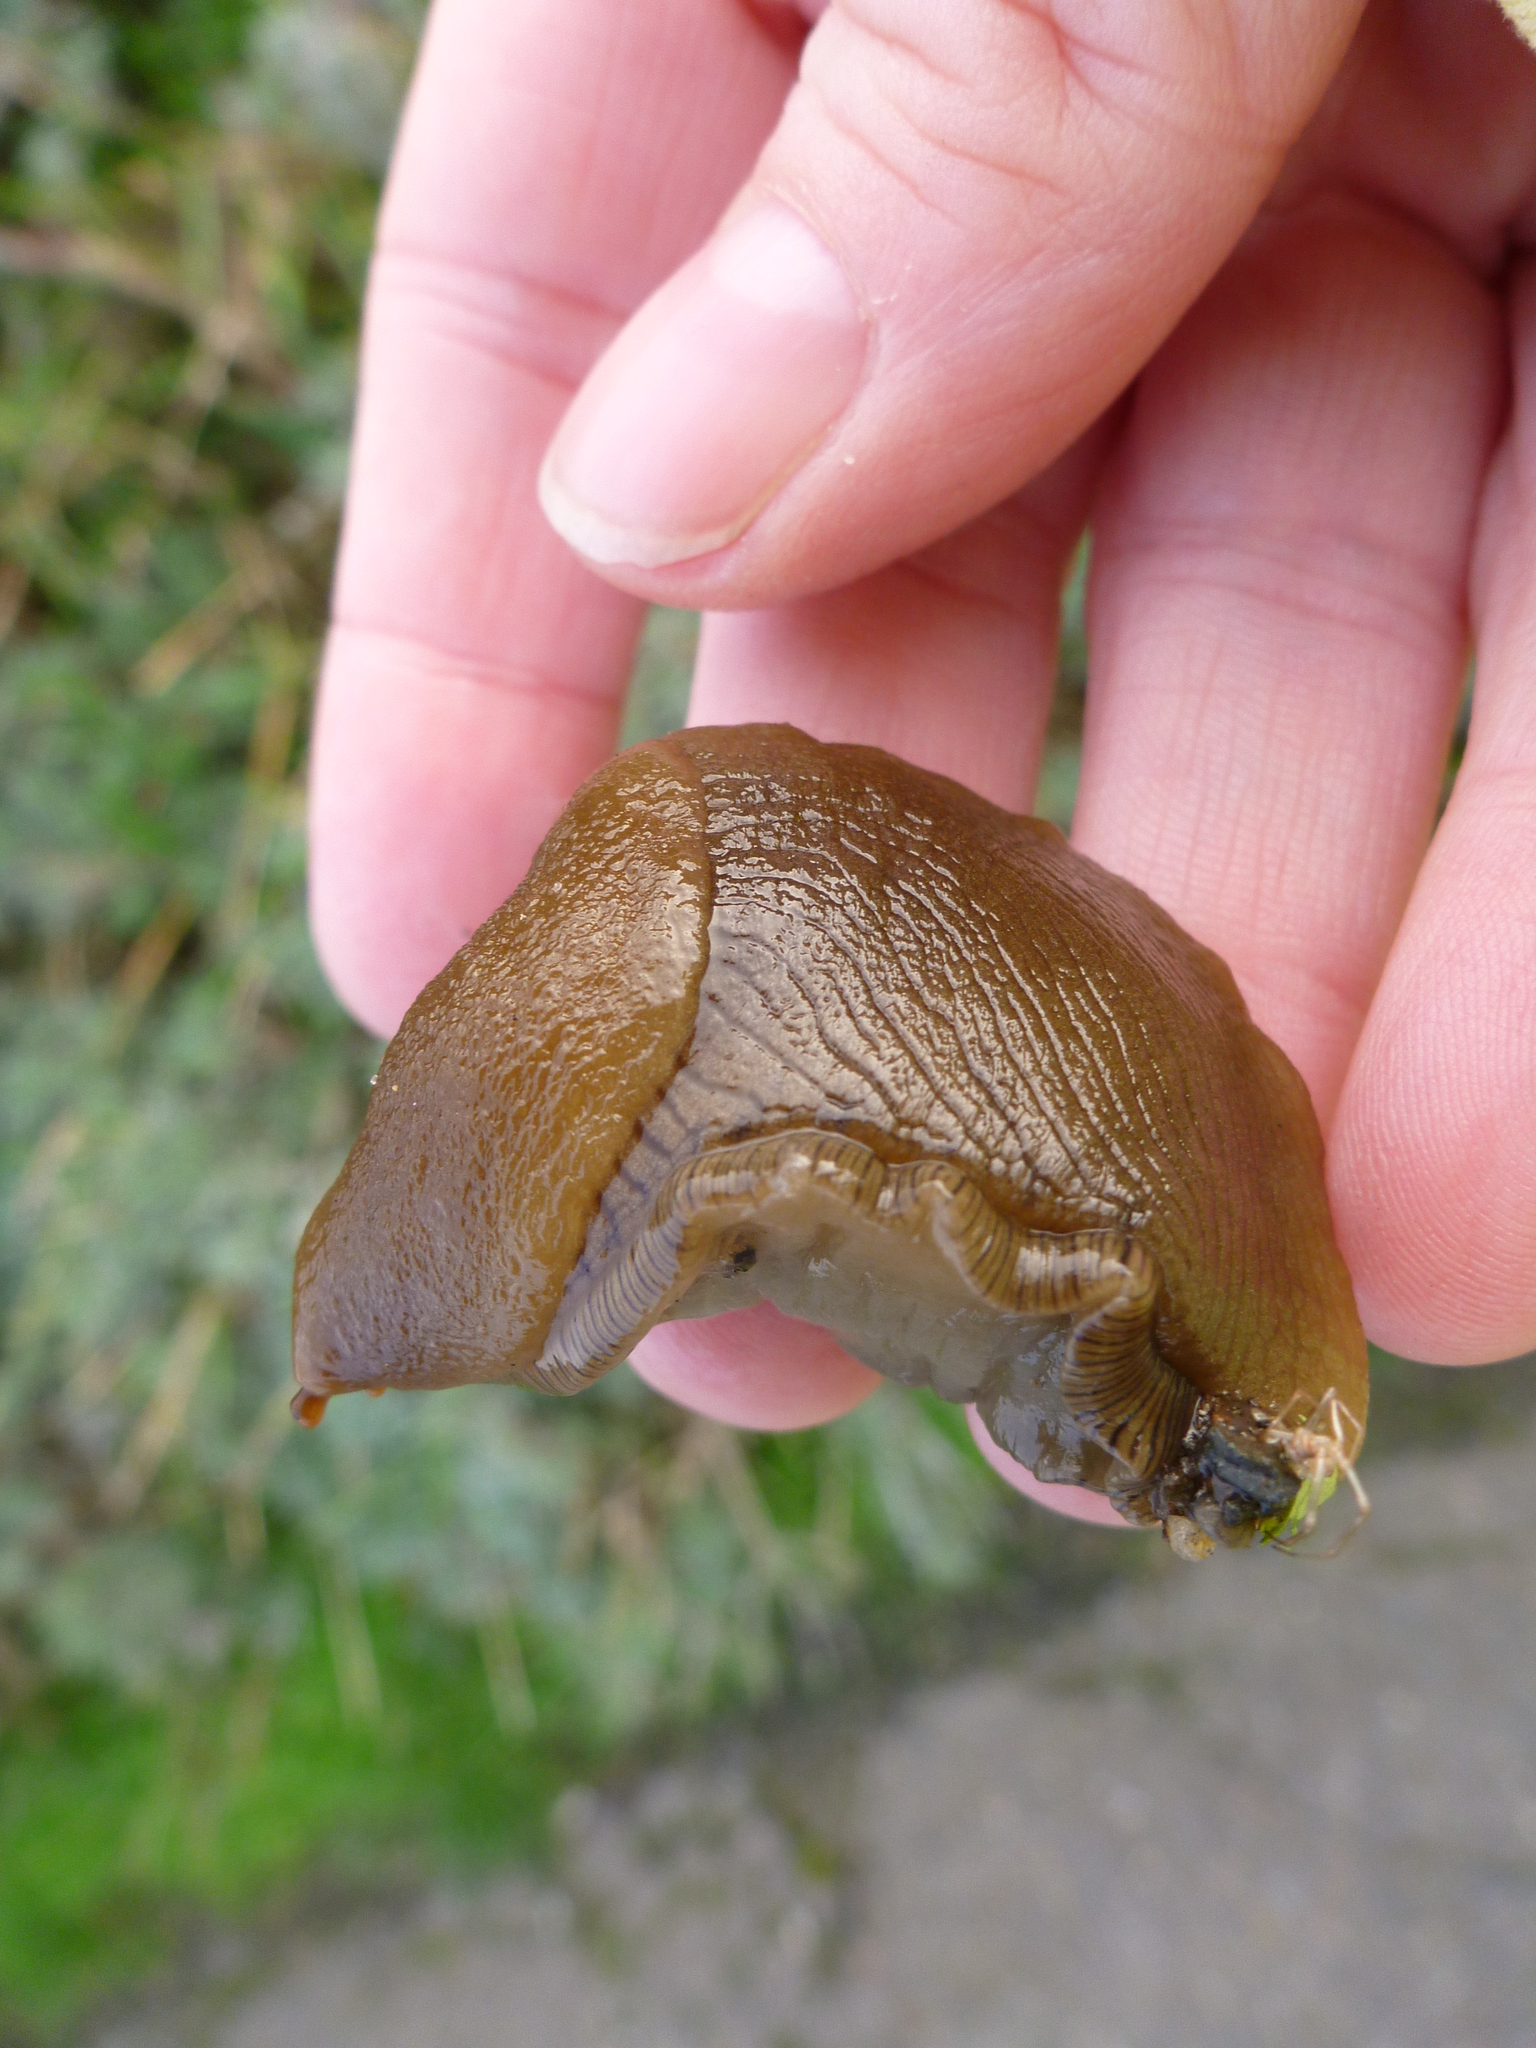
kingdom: Animalia
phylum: Mollusca
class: Gastropoda
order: Stylommatophora
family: Ariolimacidae
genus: Ariolimax
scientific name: Ariolimax buttoni
